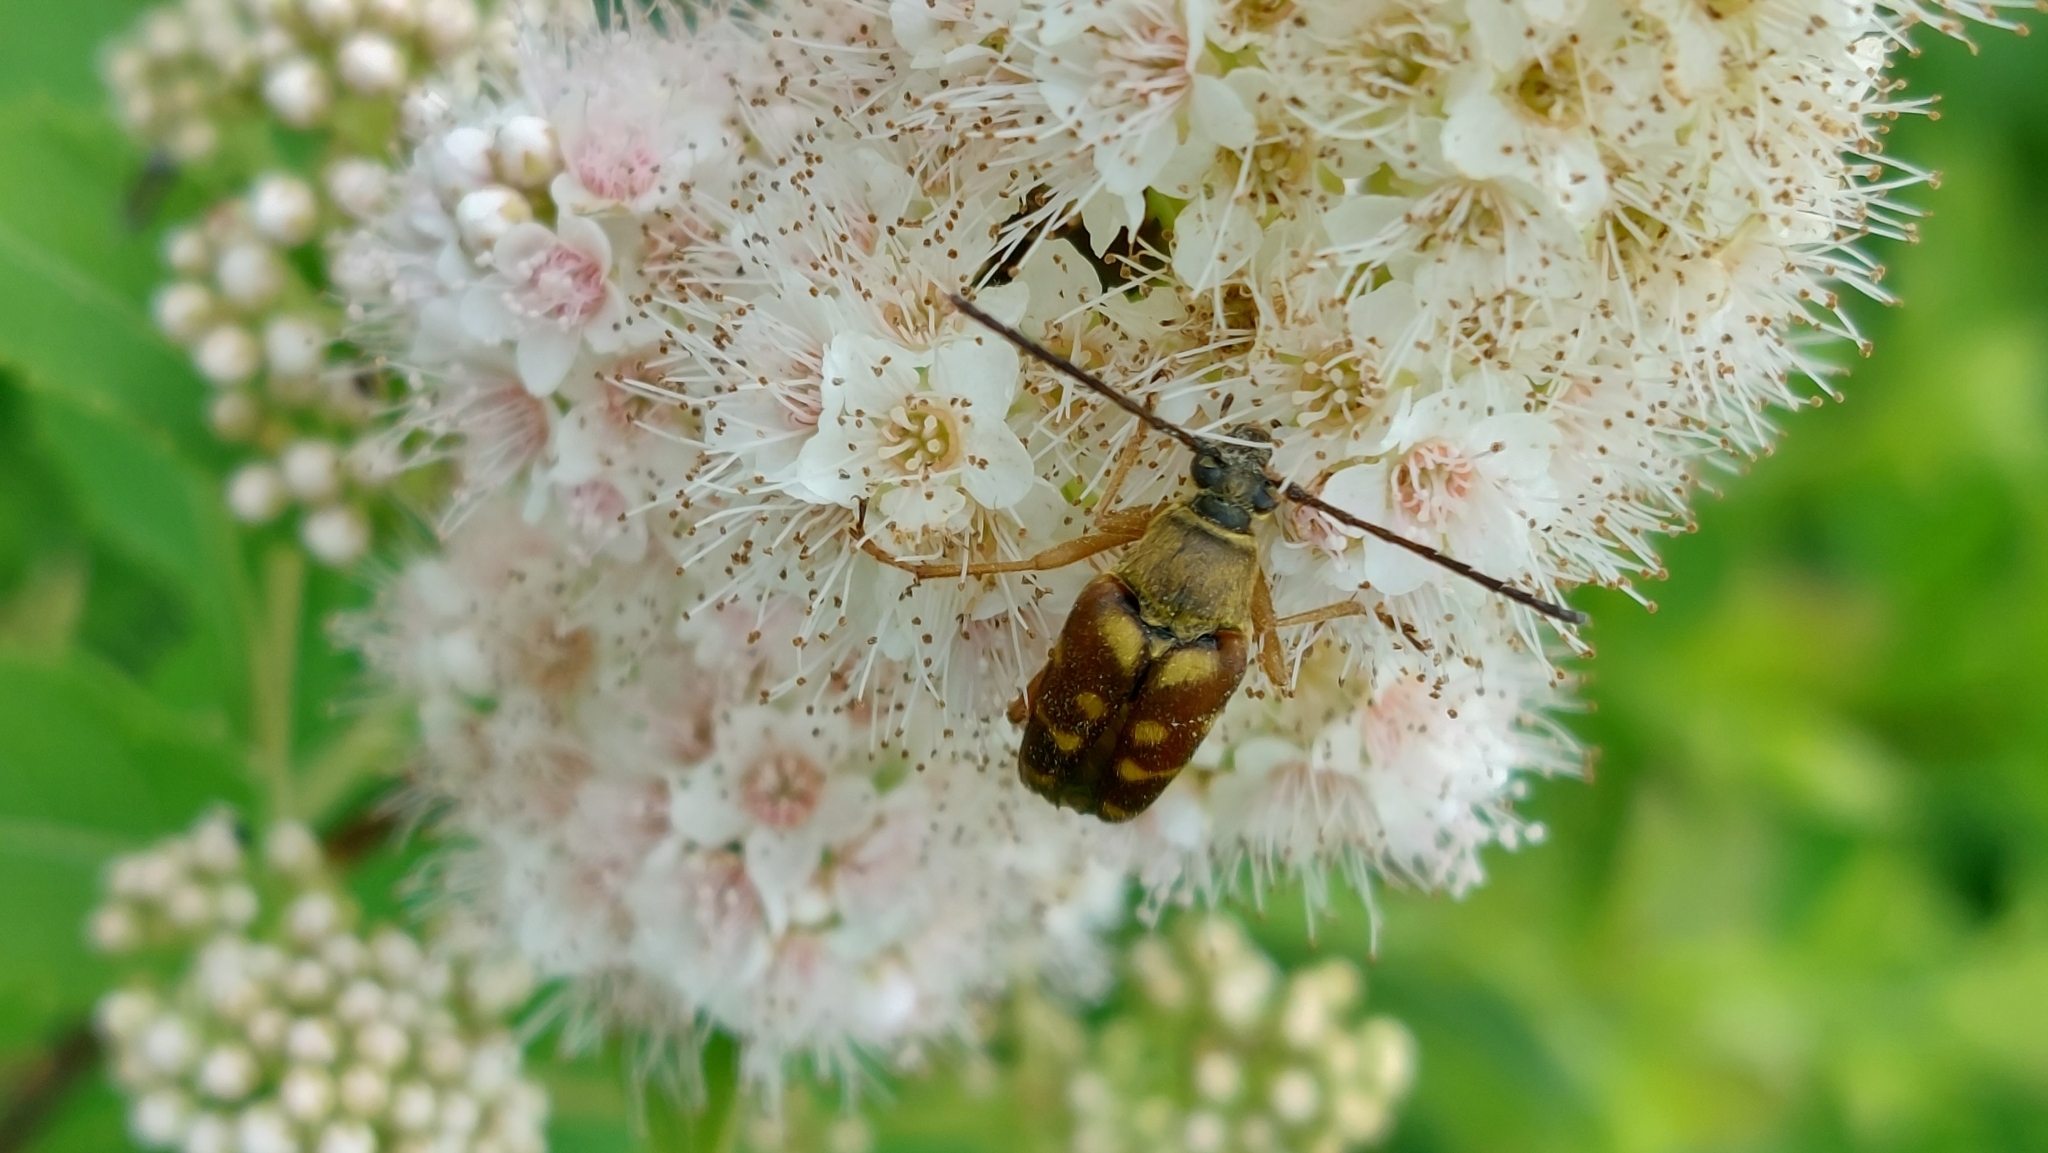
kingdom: Animalia
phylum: Arthropoda
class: Insecta
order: Coleoptera
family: Cerambycidae
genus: Typocerus
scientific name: Typocerus velutinus
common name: Banded longhorn beetle
